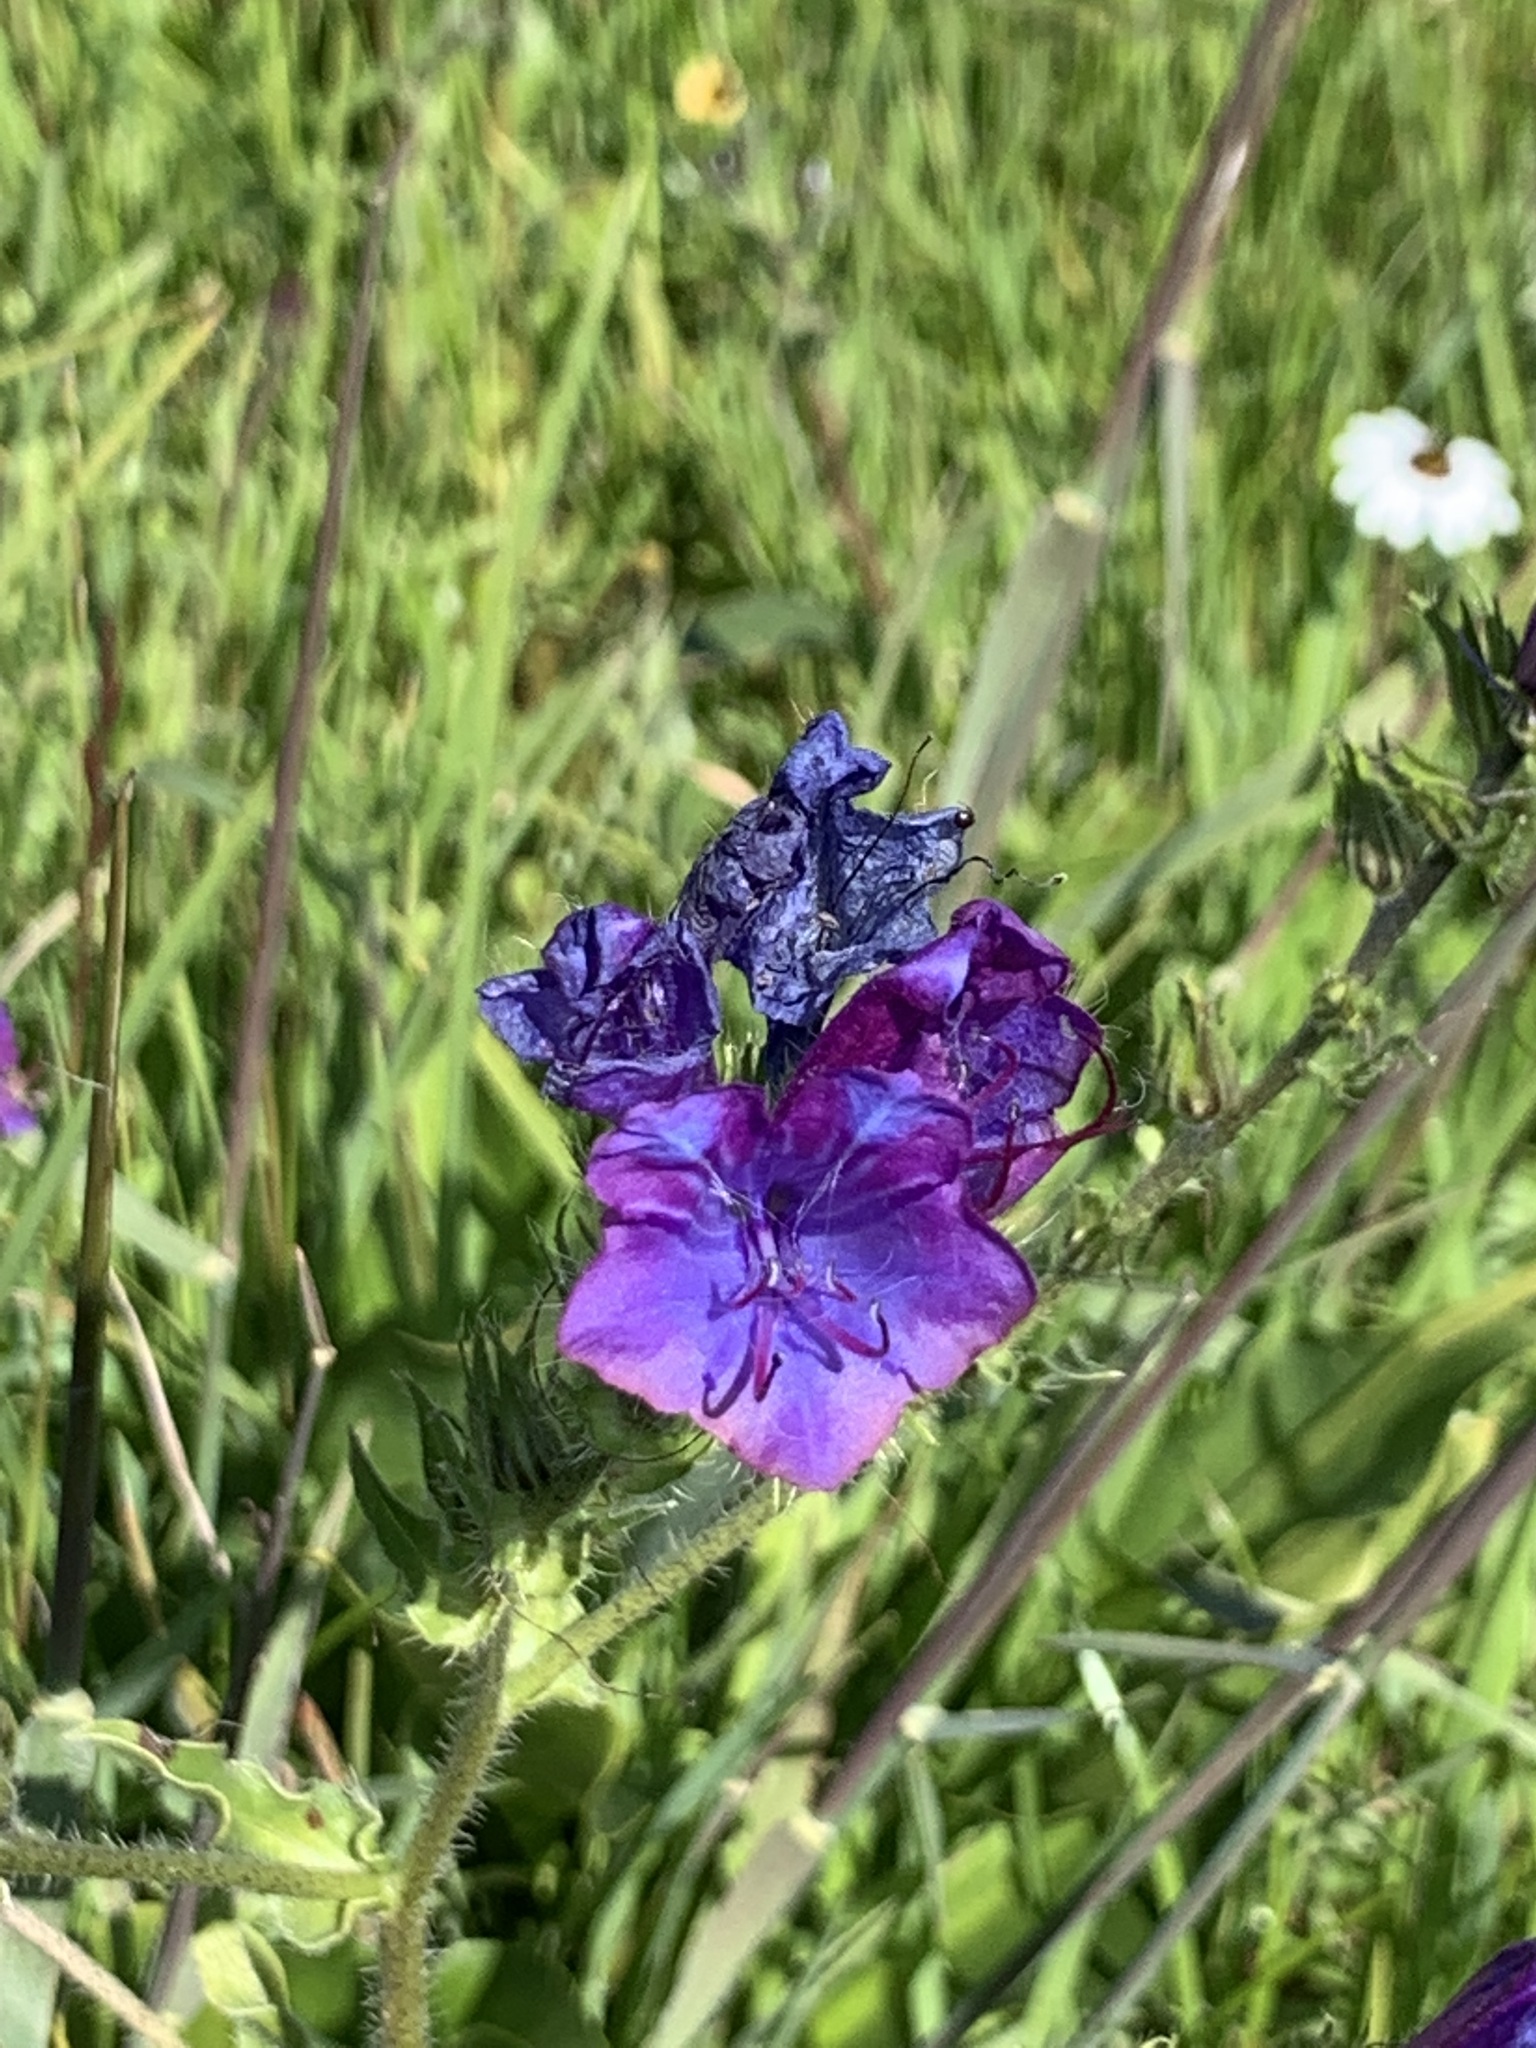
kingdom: Plantae
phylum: Tracheophyta
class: Magnoliopsida
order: Boraginales
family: Boraginaceae
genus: Echium
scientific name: Echium plantagineum
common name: Purple viper's-bugloss
